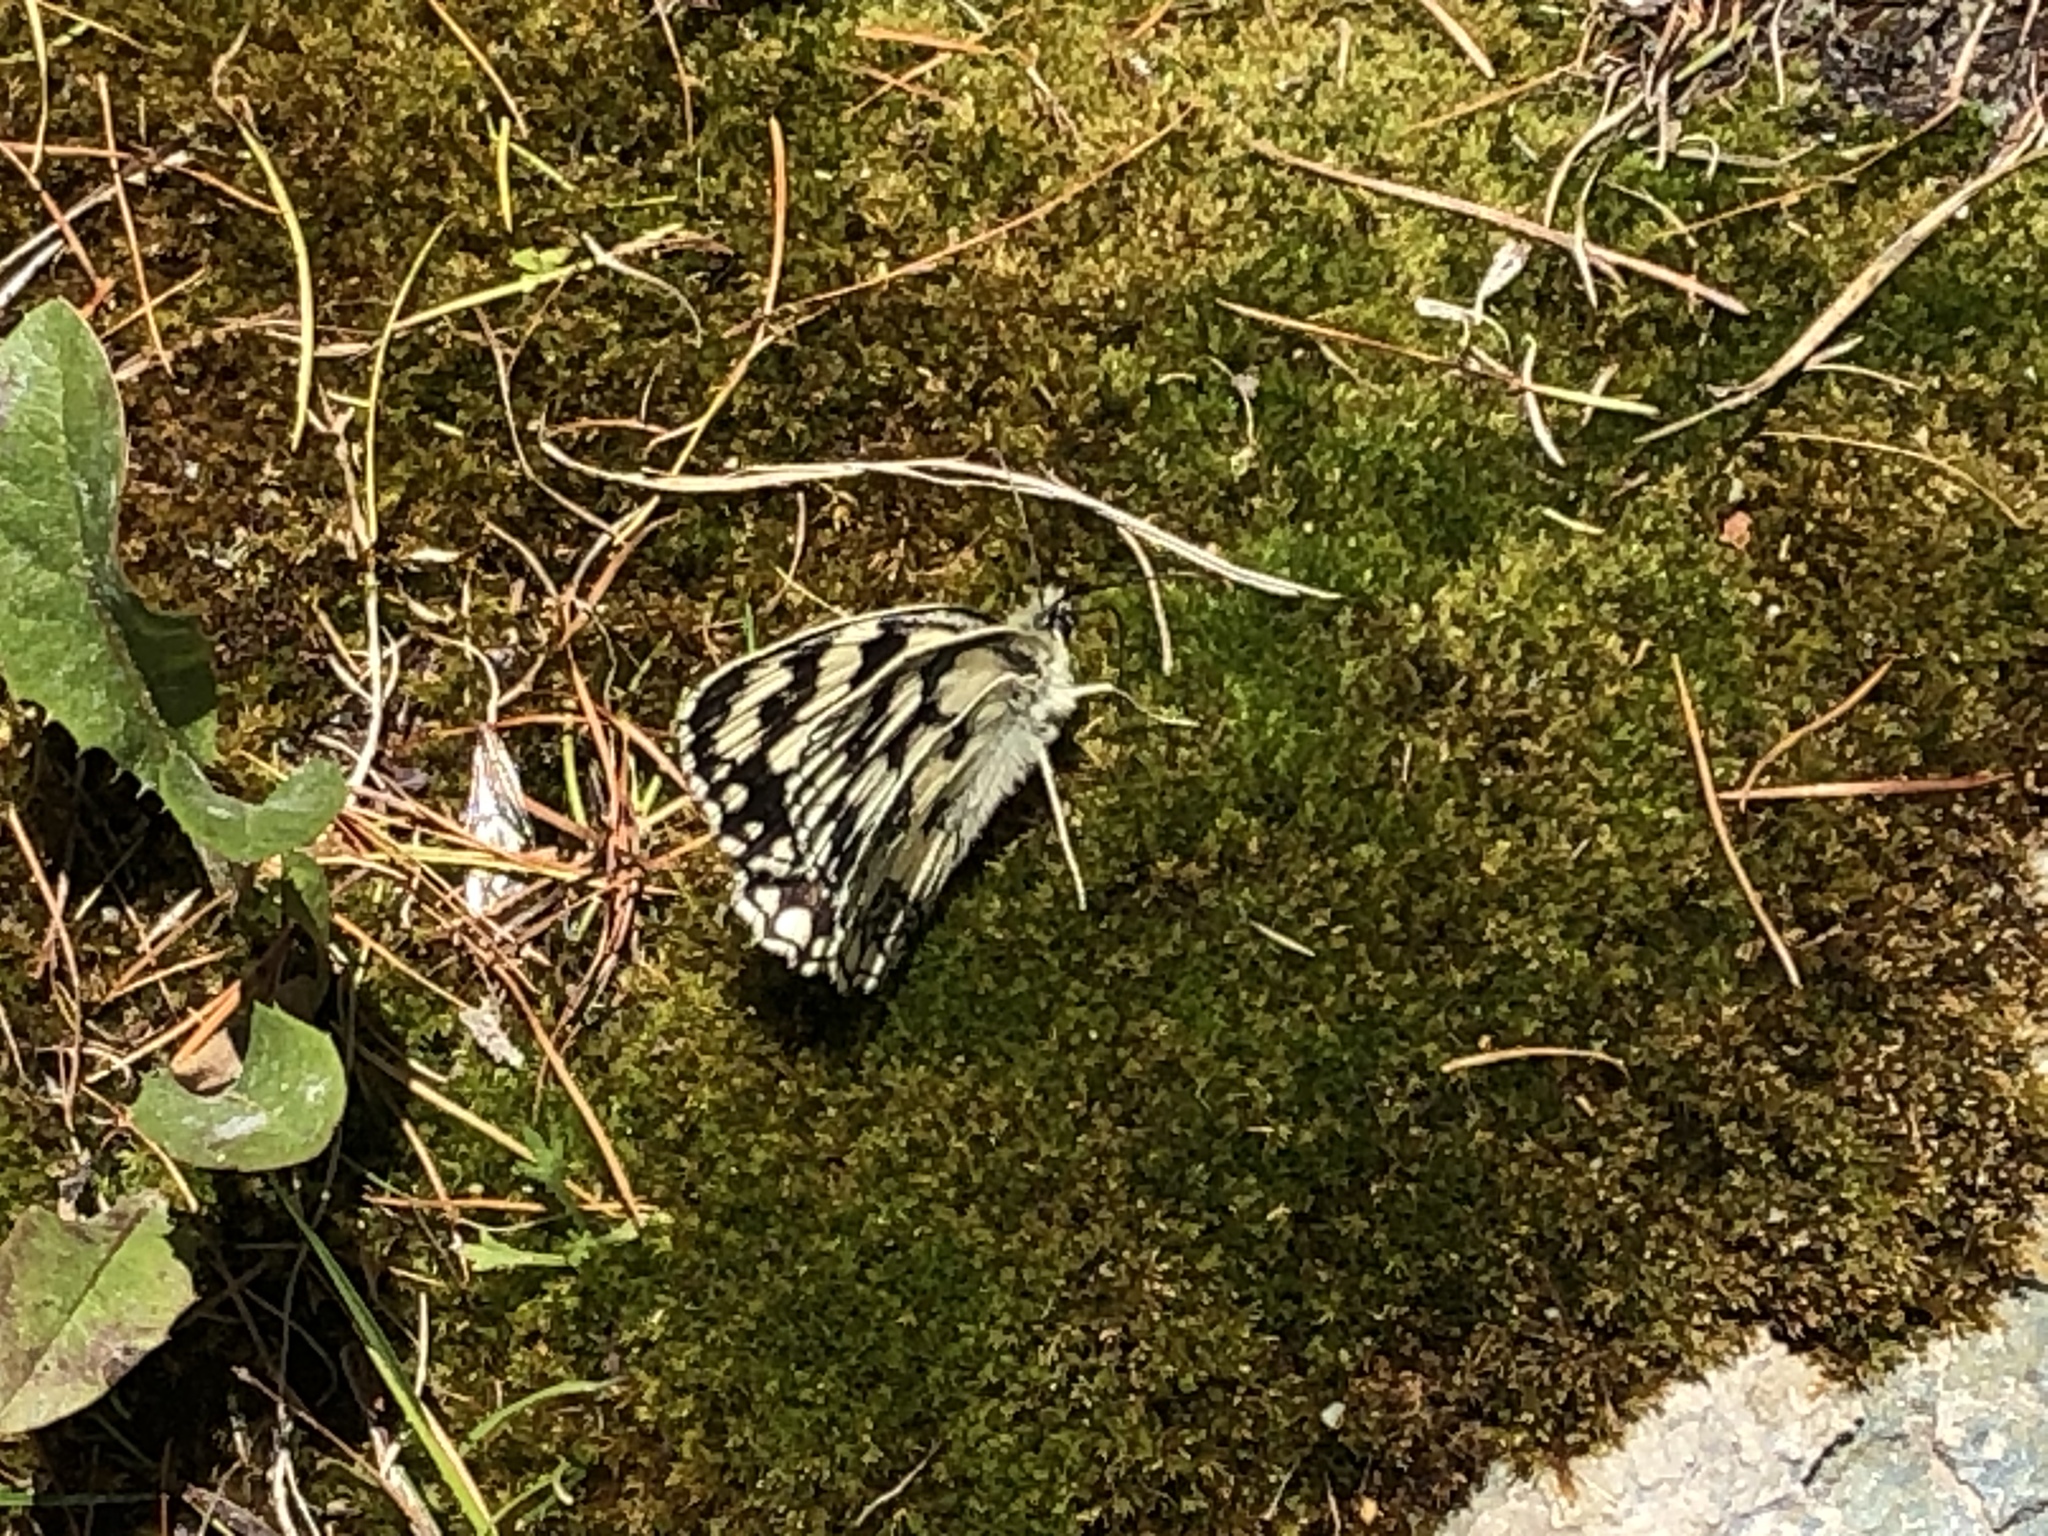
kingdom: Animalia
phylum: Arthropoda
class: Insecta
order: Lepidoptera
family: Nymphalidae
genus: Melanargia
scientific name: Melanargia galathea
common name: Marbled white
